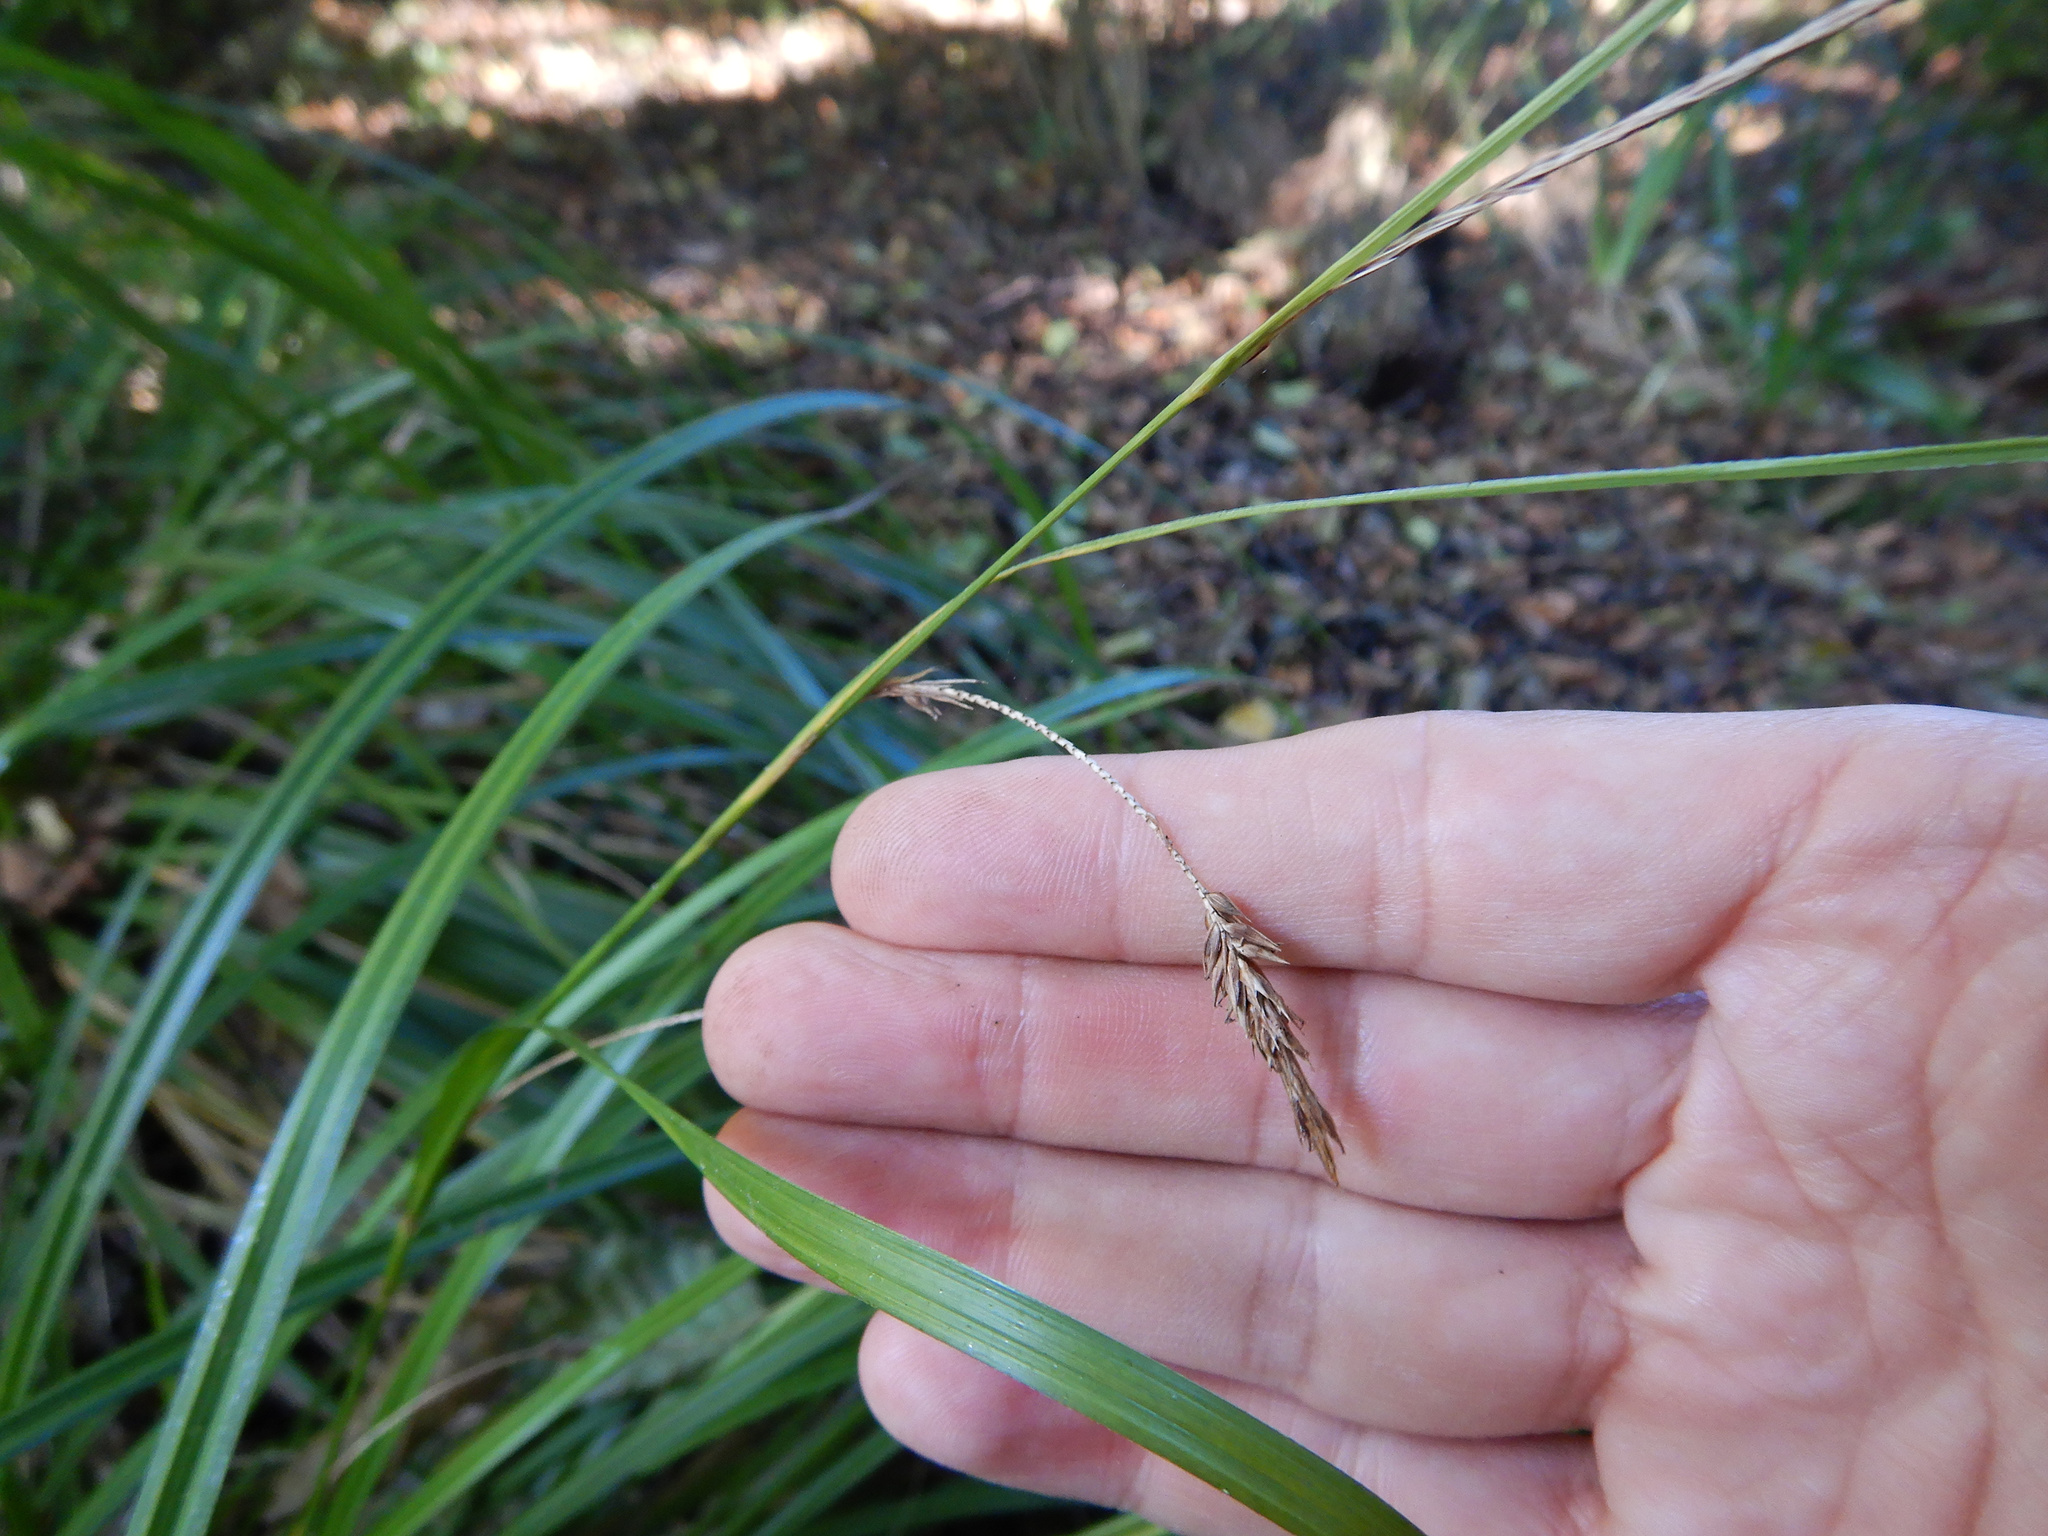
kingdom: Plantae
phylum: Tracheophyta
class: Liliopsida
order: Poales
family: Cyperaceae
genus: Carex
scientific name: Carex pendula
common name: Pendulous sedge
